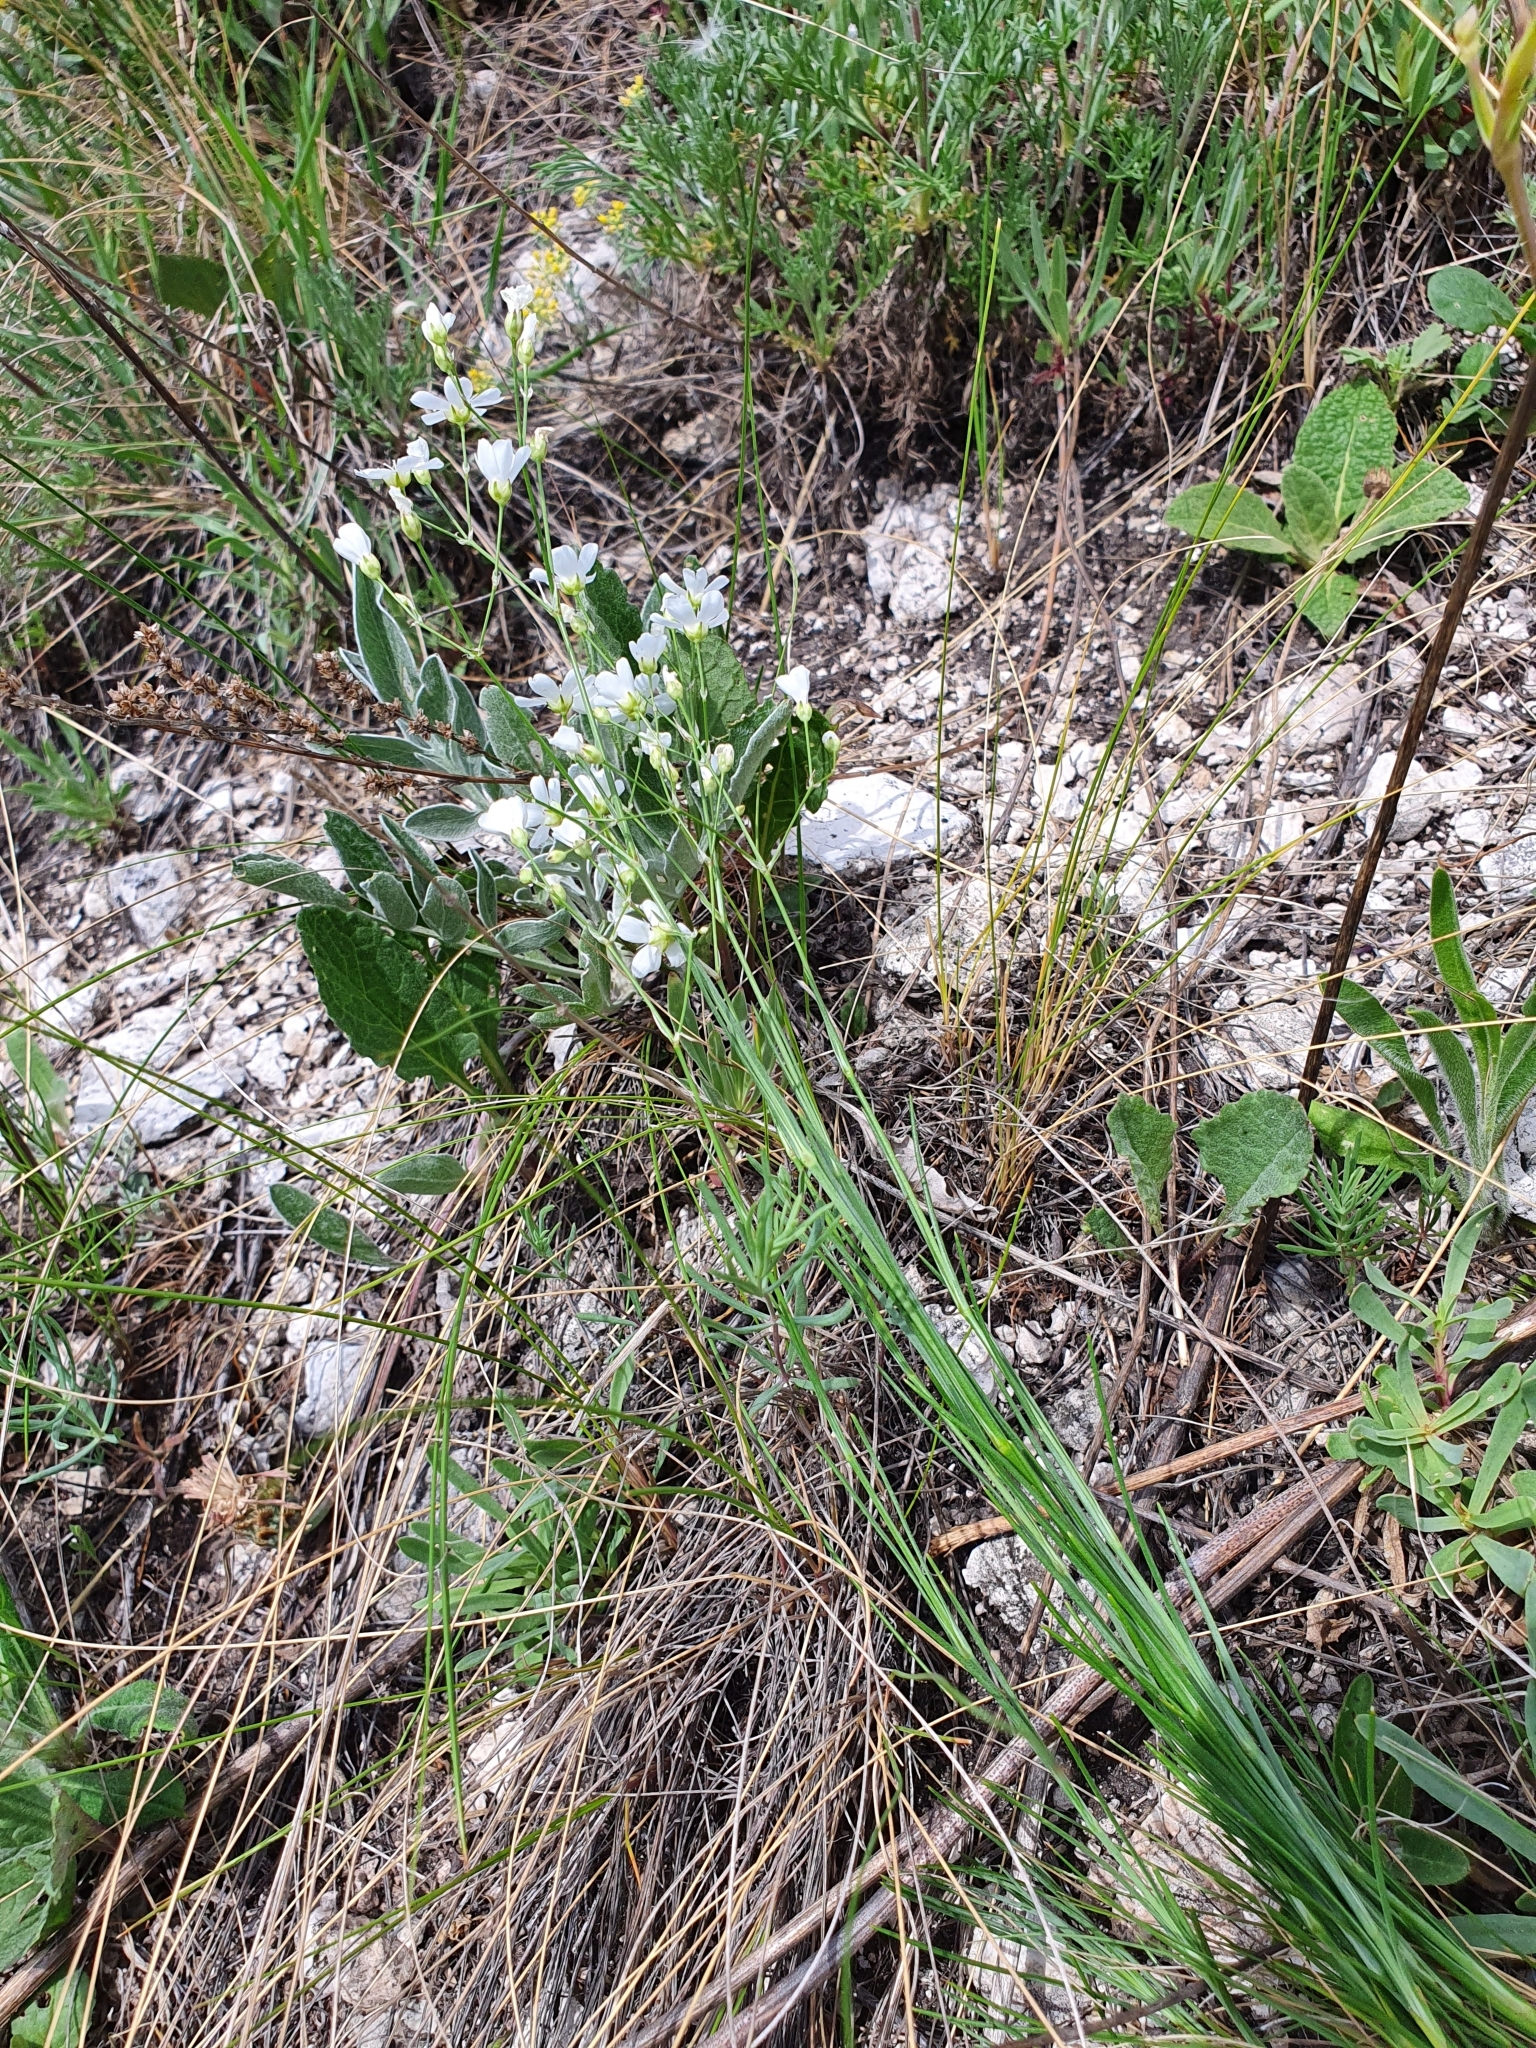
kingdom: Plantae
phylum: Tracheophyta
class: Magnoliopsida
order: Caryophyllales
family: Caryophyllaceae
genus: Eremogone
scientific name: Eremogone saxatilis
